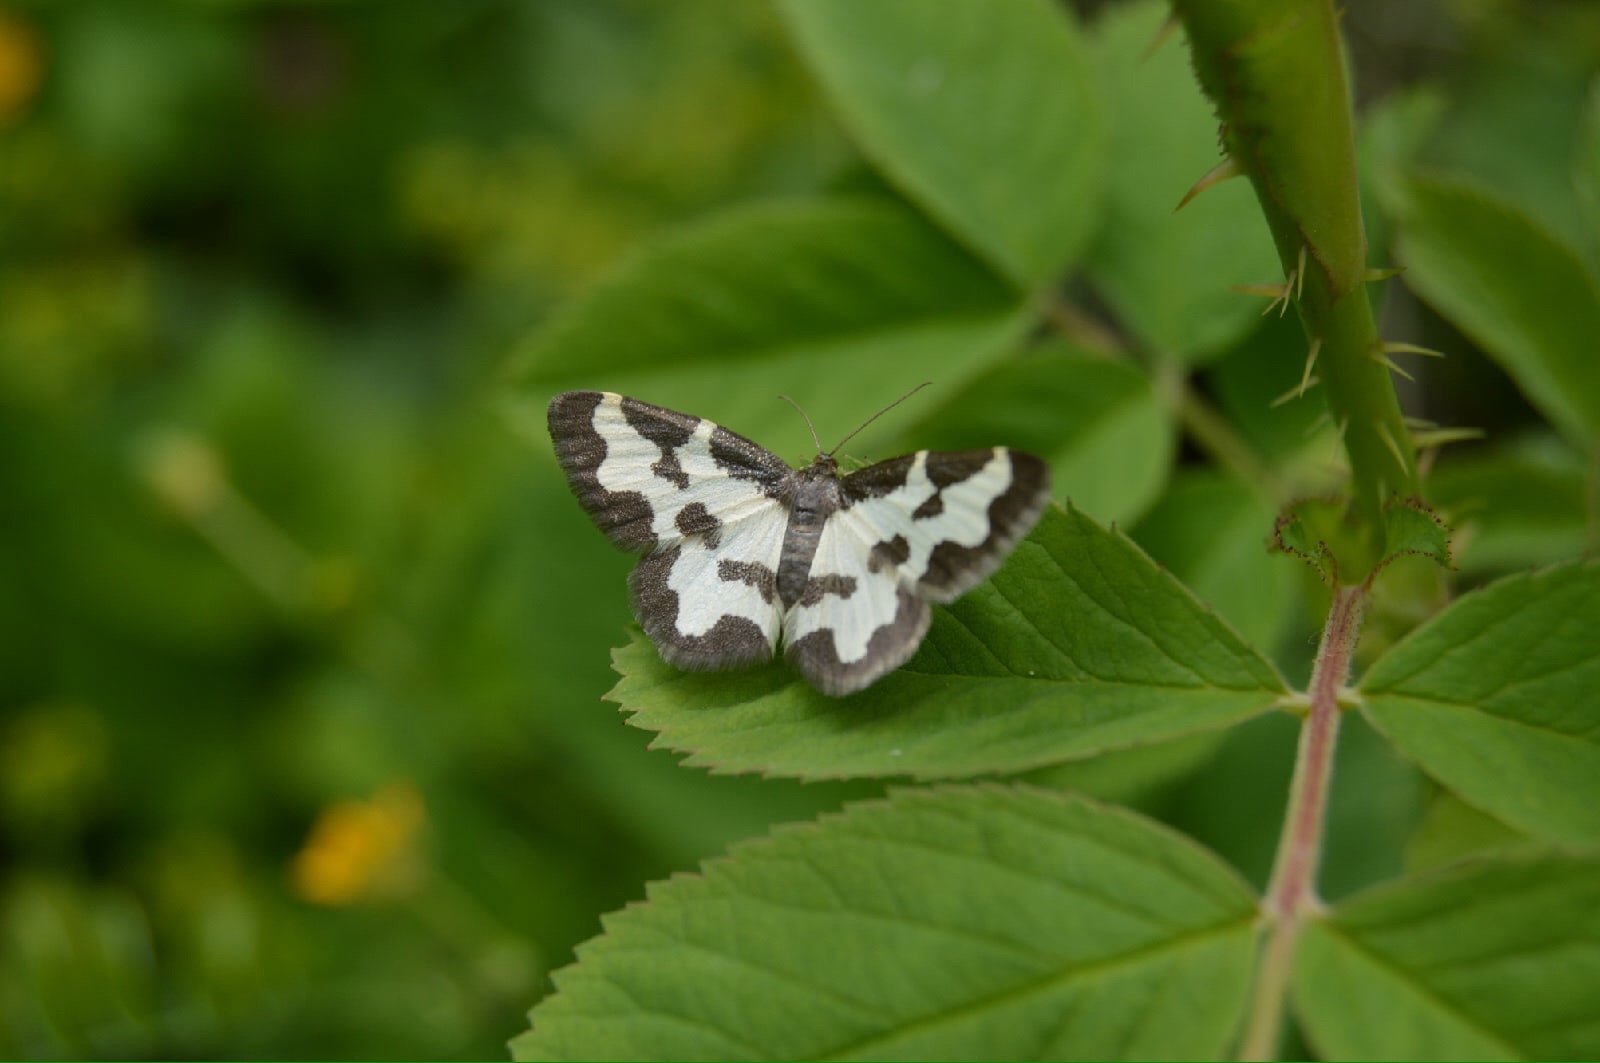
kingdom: Animalia
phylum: Arthropoda
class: Insecta
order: Lepidoptera
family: Geometridae
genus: Lomaspilis
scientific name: Lomaspilis marginata
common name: Clouded border
